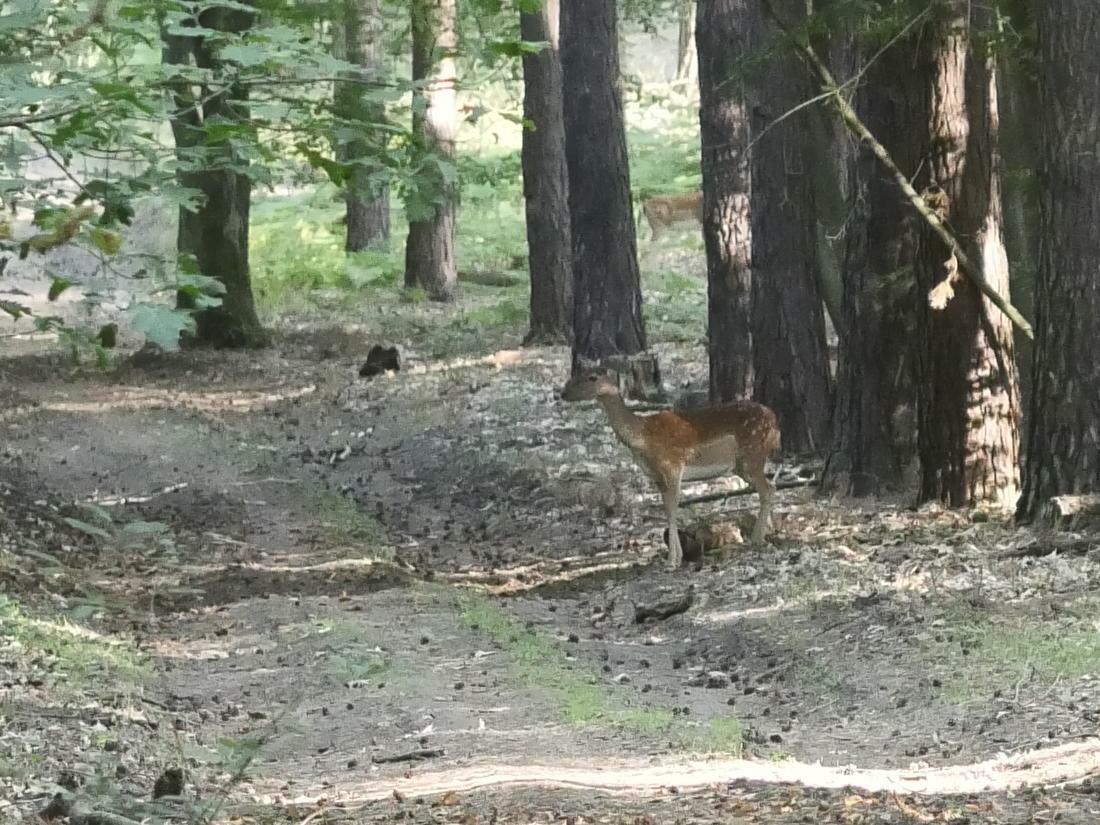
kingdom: Animalia
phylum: Chordata
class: Mammalia
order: Artiodactyla
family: Cervidae
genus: Dama
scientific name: Dama dama
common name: Fallow deer
